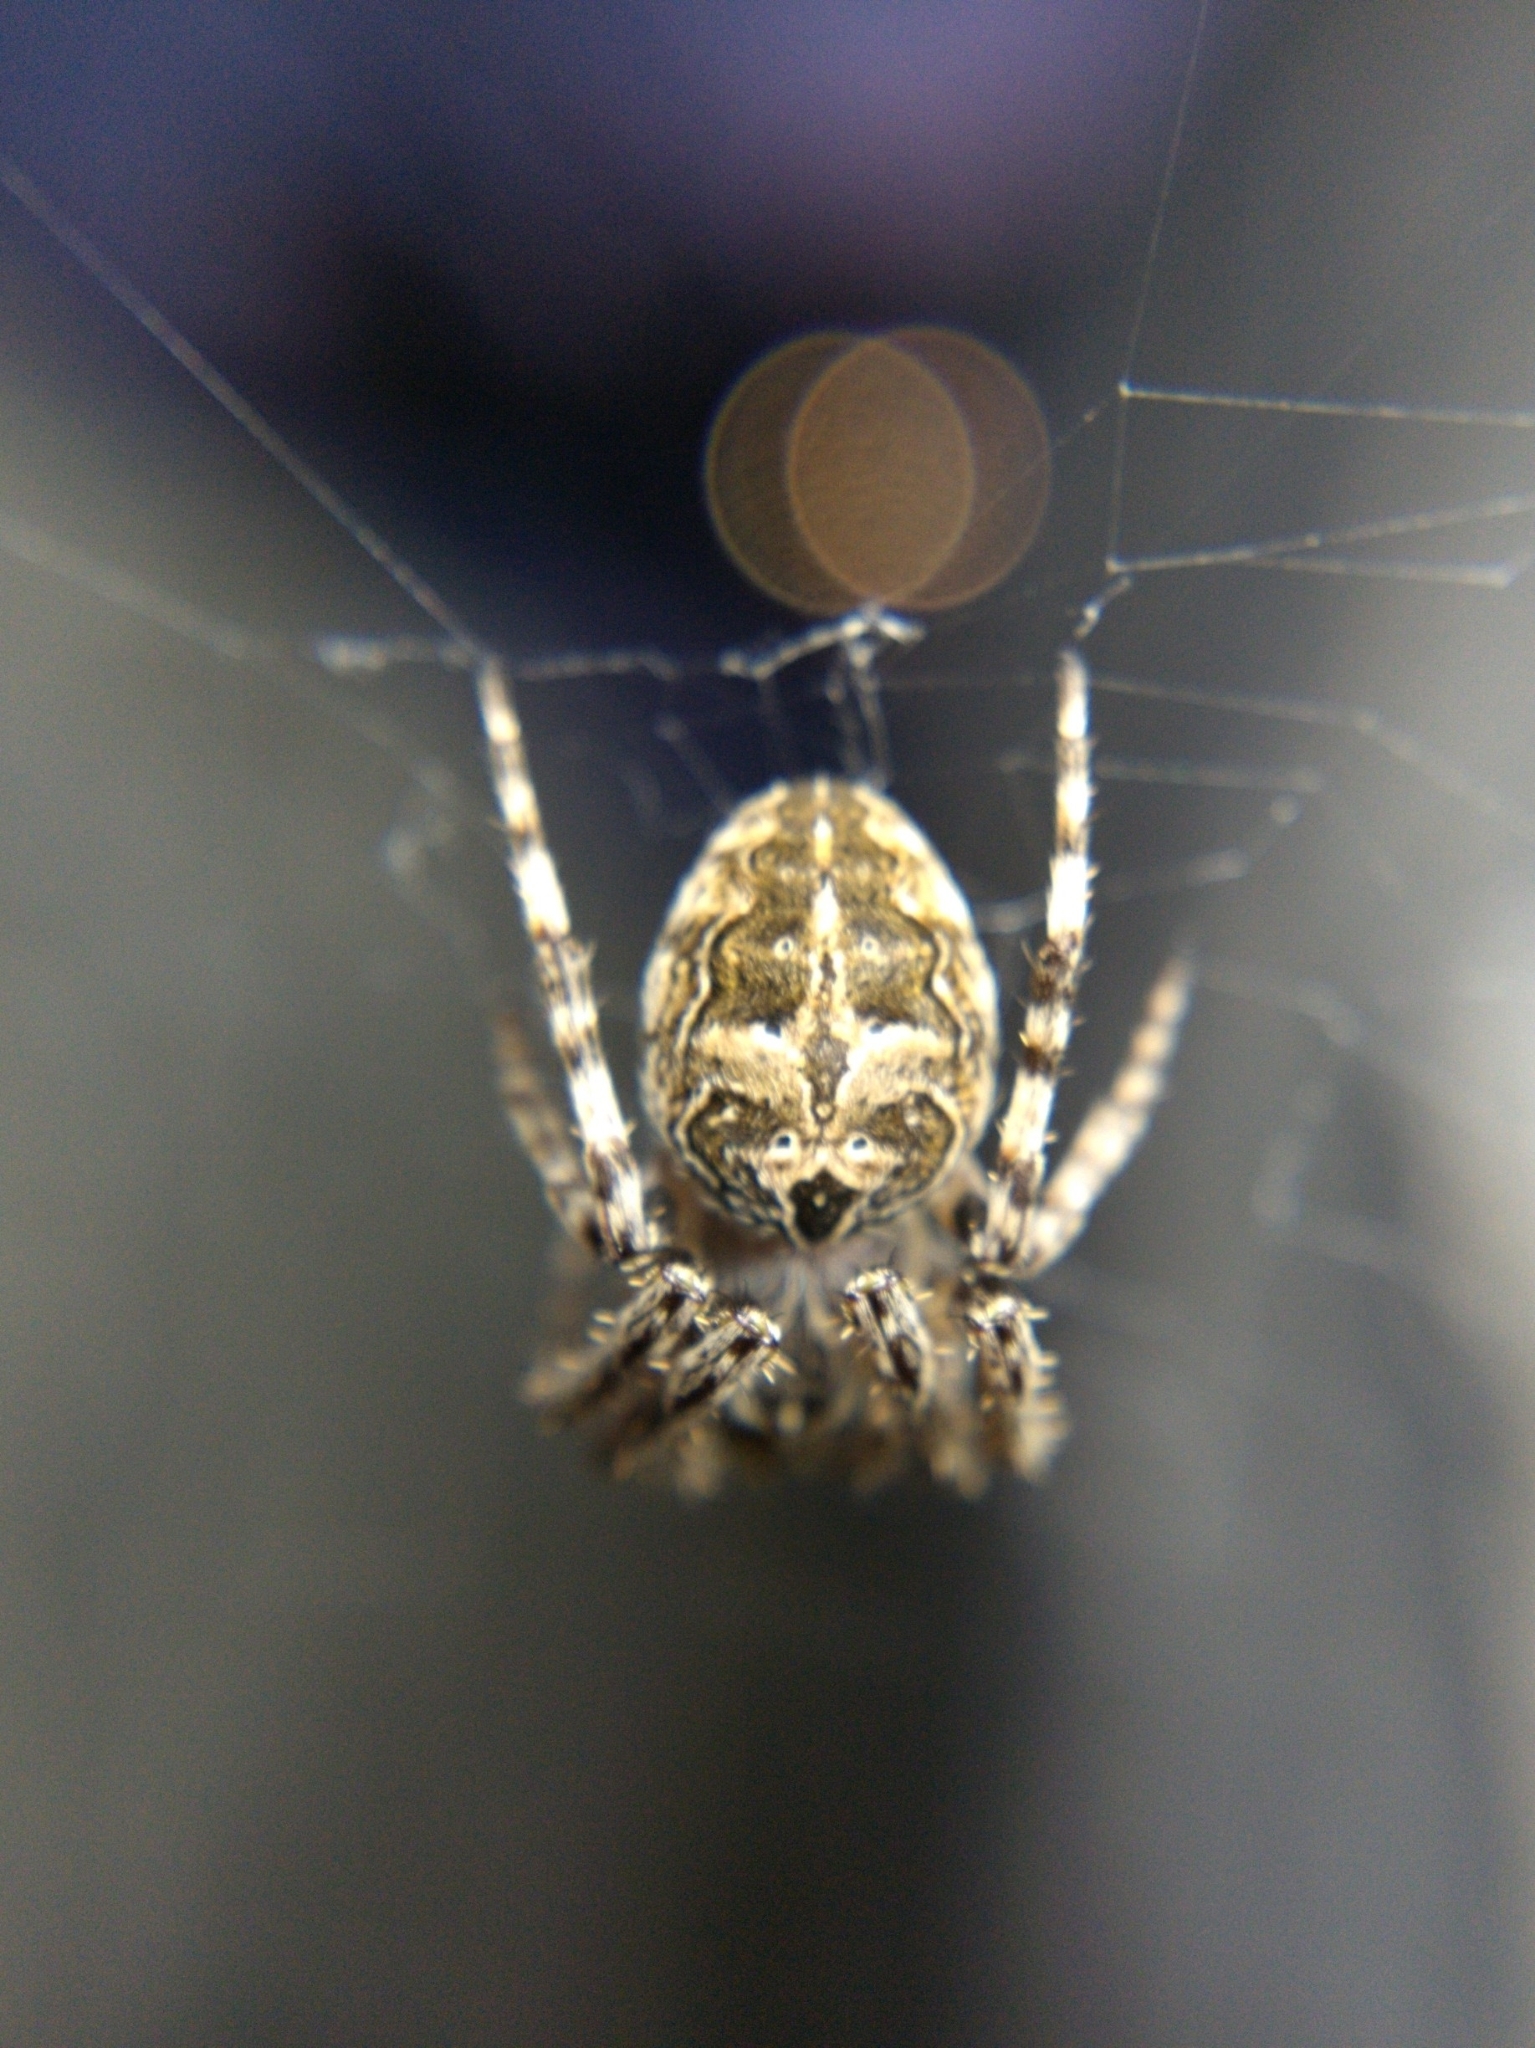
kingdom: Animalia
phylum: Arthropoda
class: Arachnida
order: Araneae
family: Araneidae
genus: Larinioides
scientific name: Larinioides sclopetarius
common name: Bridge orbweaver
